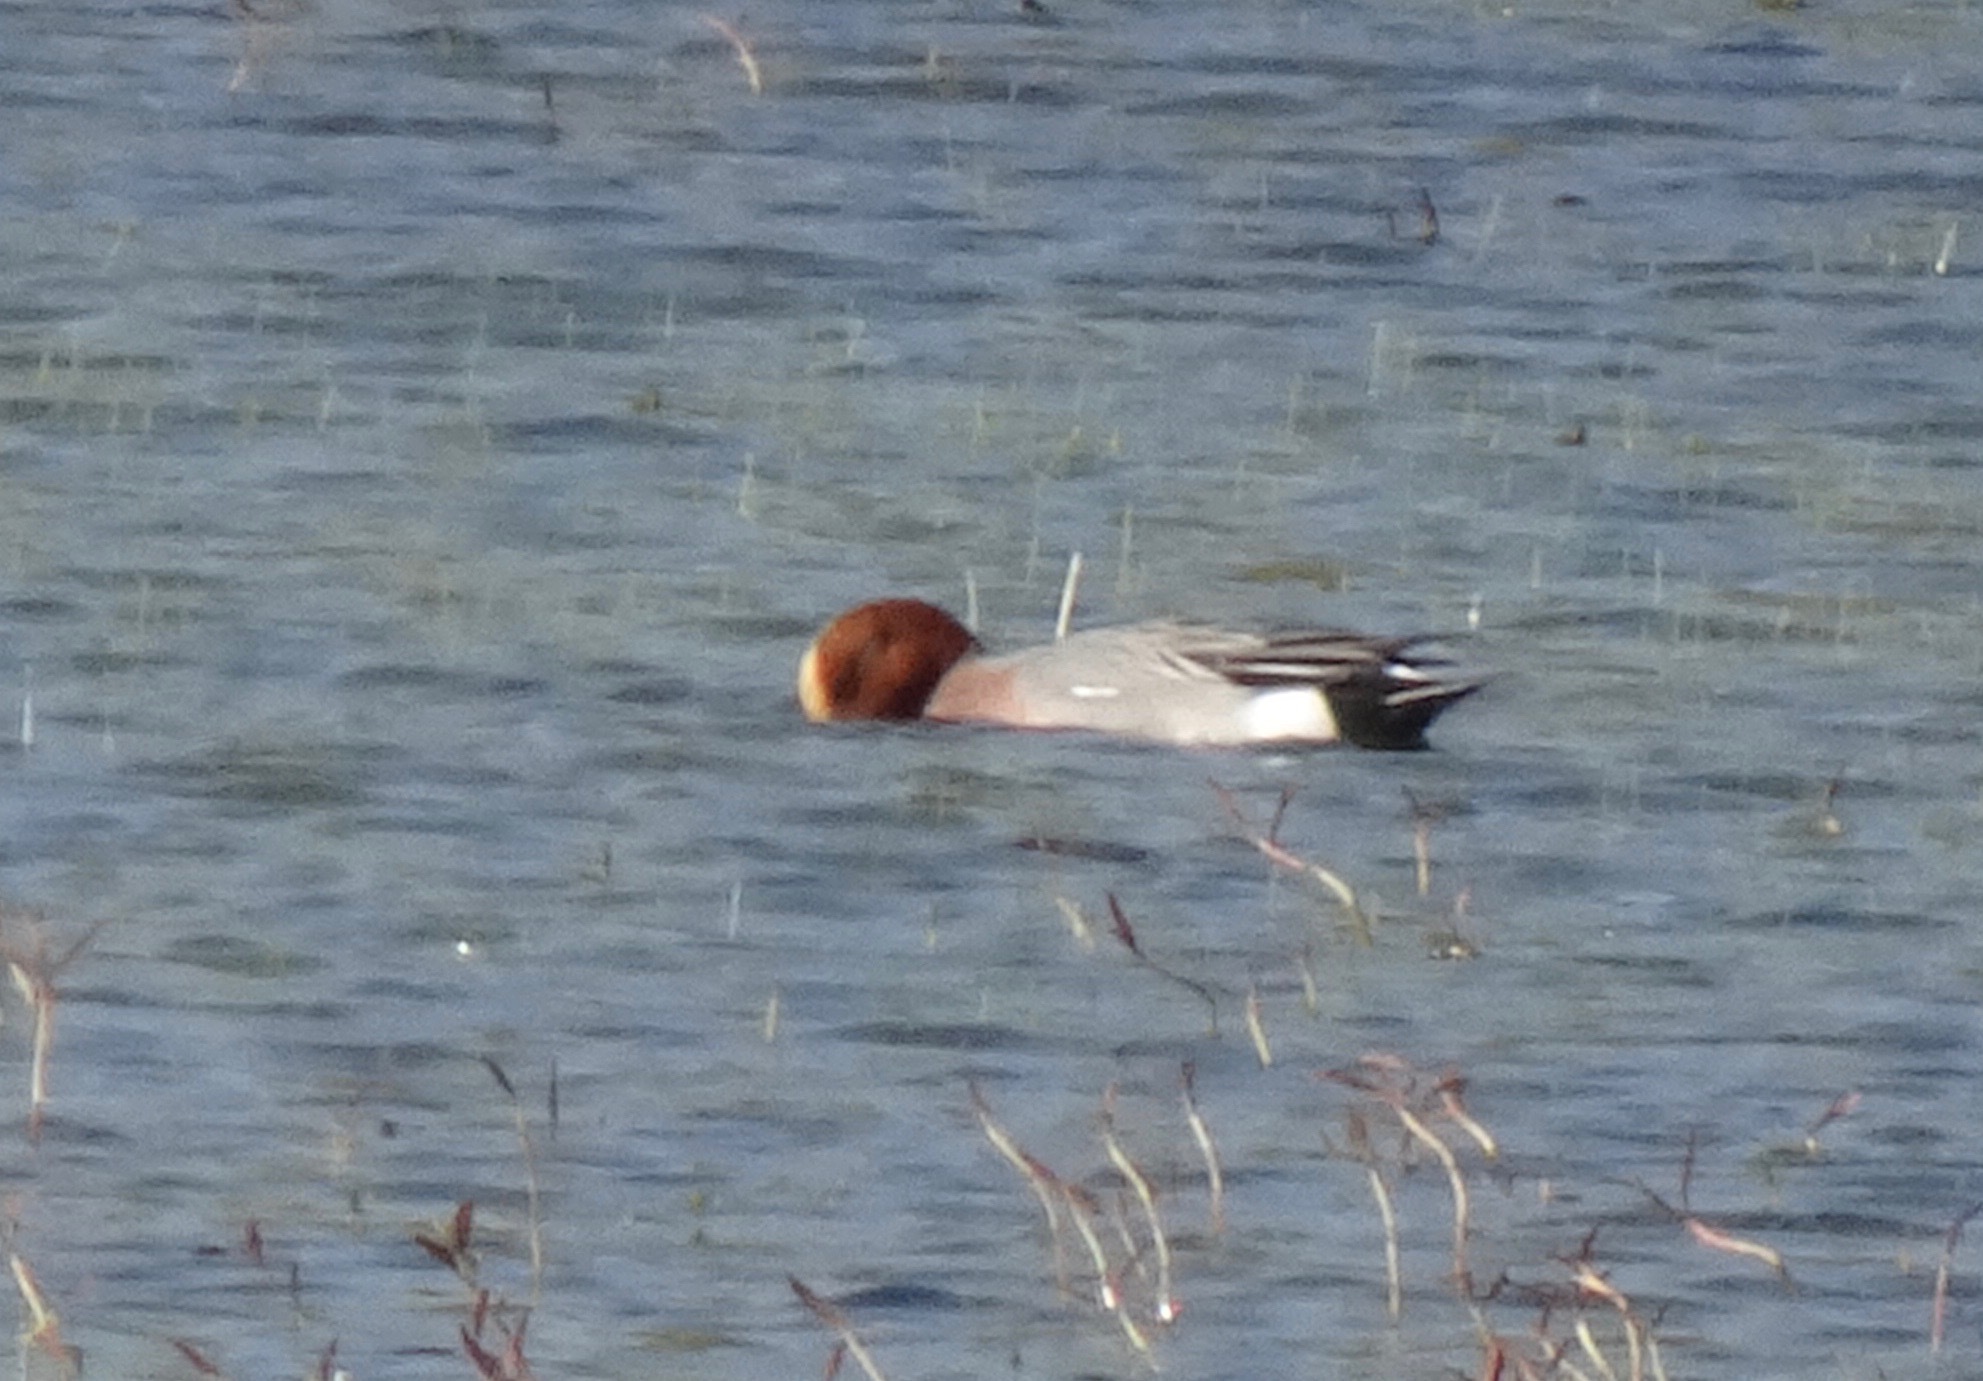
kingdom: Animalia
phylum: Chordata
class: Aves
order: Anseriformes
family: Anatidae
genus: Mareca
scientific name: Mareca penelope
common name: Eurasian wigeon
